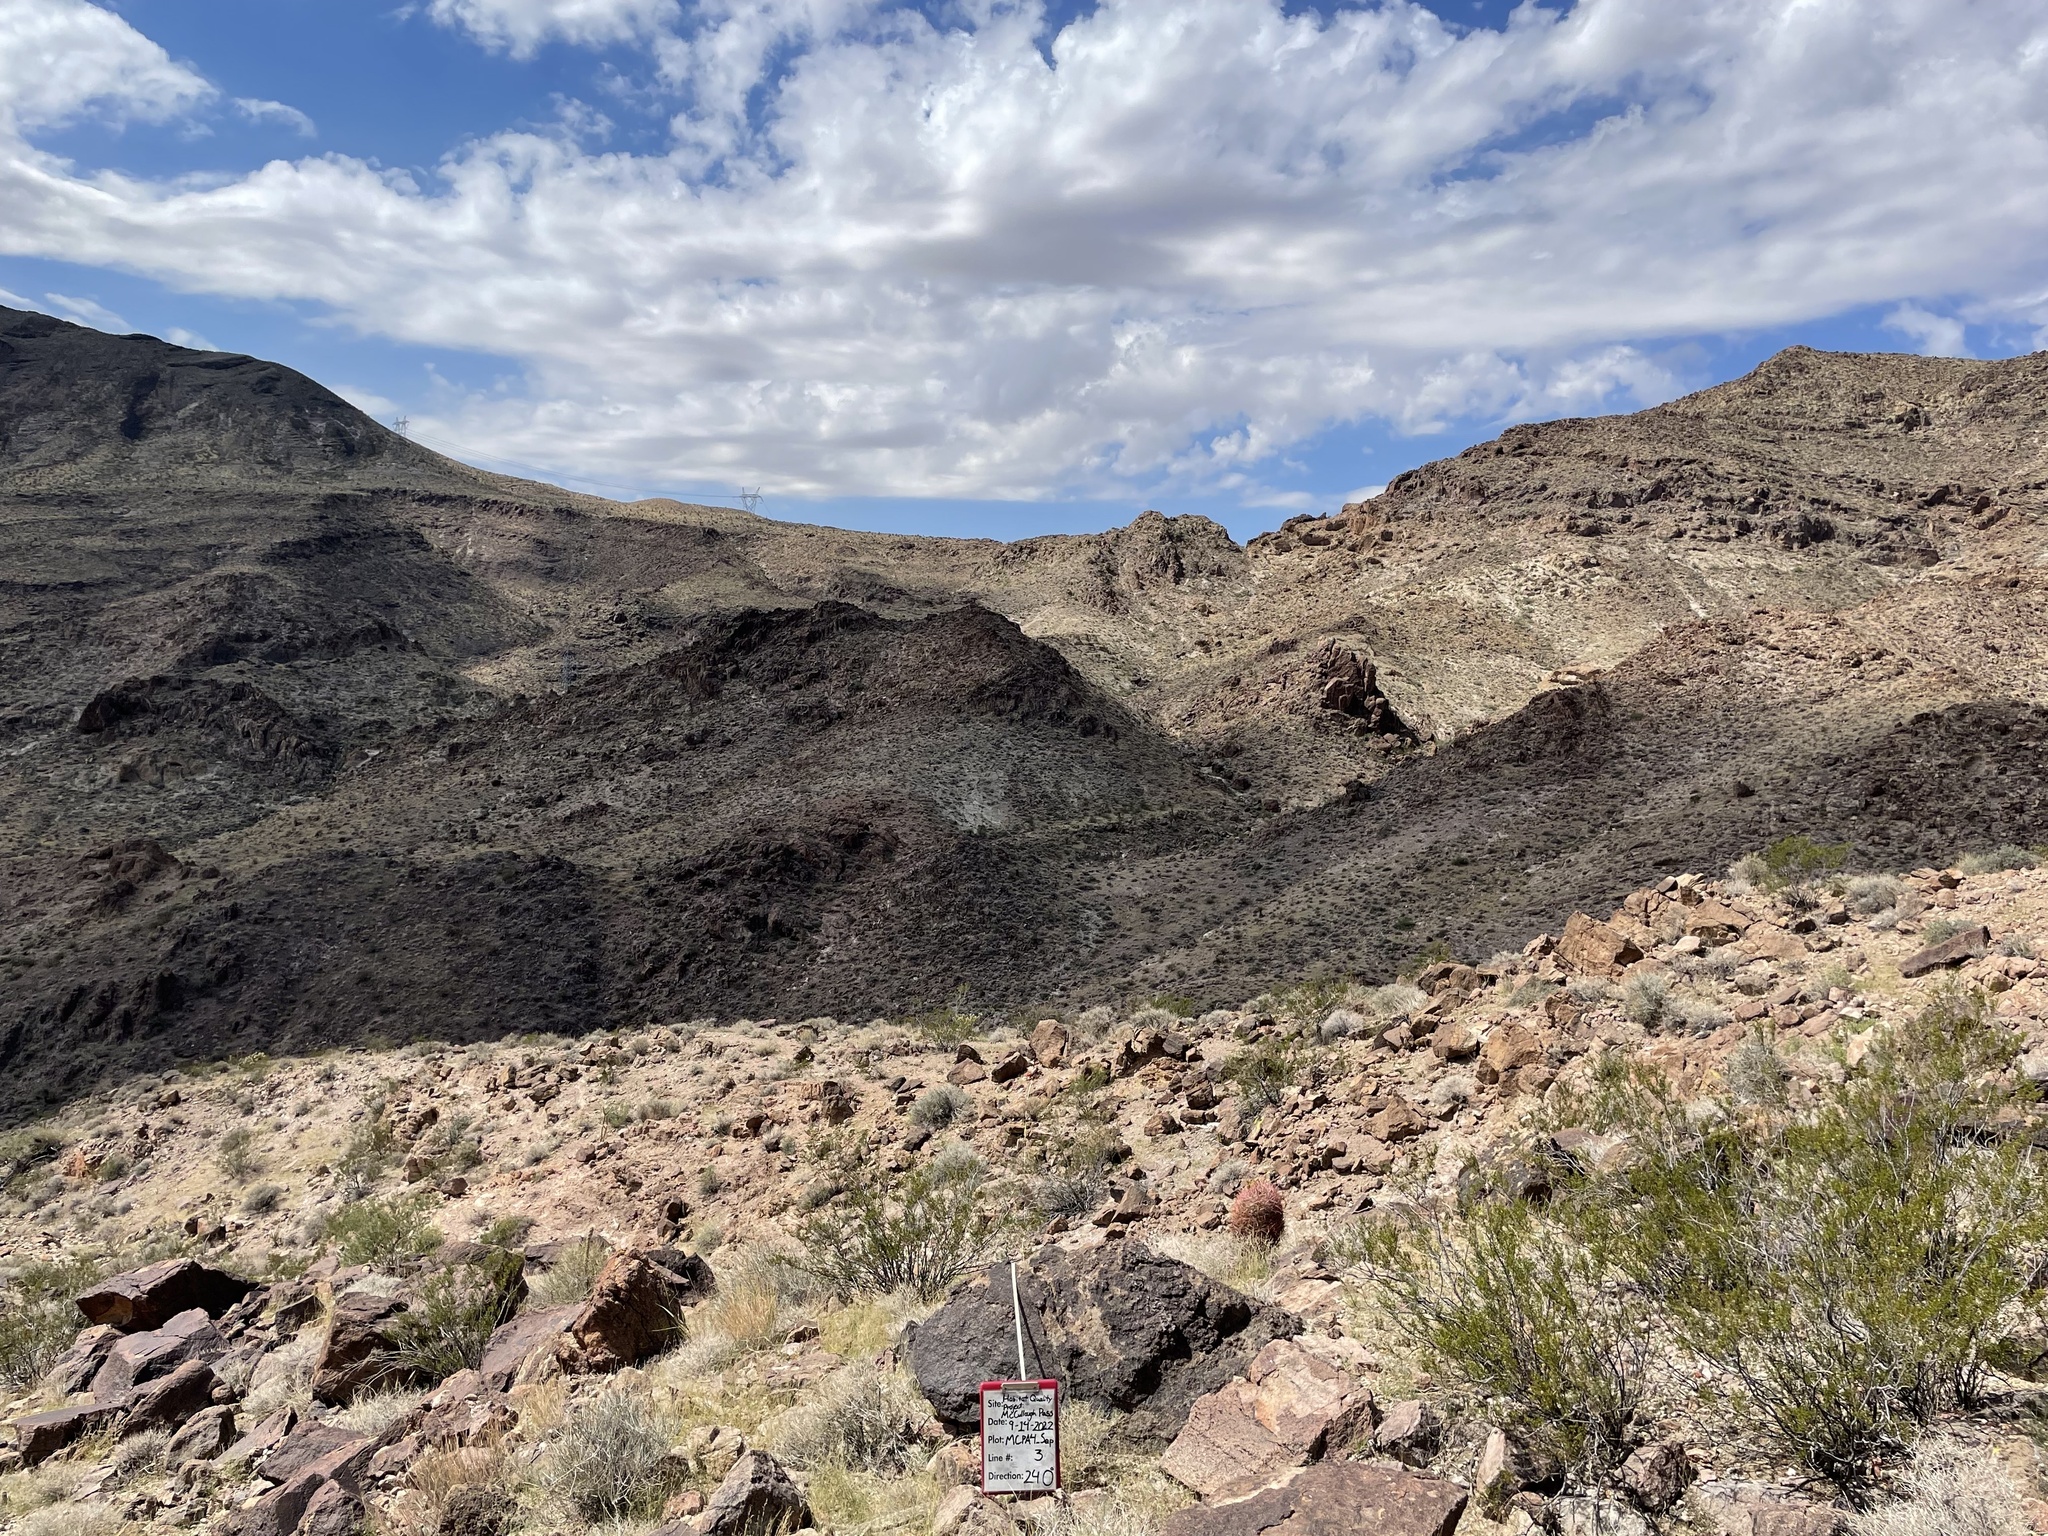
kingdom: Plantae
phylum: Tracheophyta
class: Magnoliopsida
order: Zygophyllales
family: Zygophyllaceae
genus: Larrea
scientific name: Larrea tridentata
